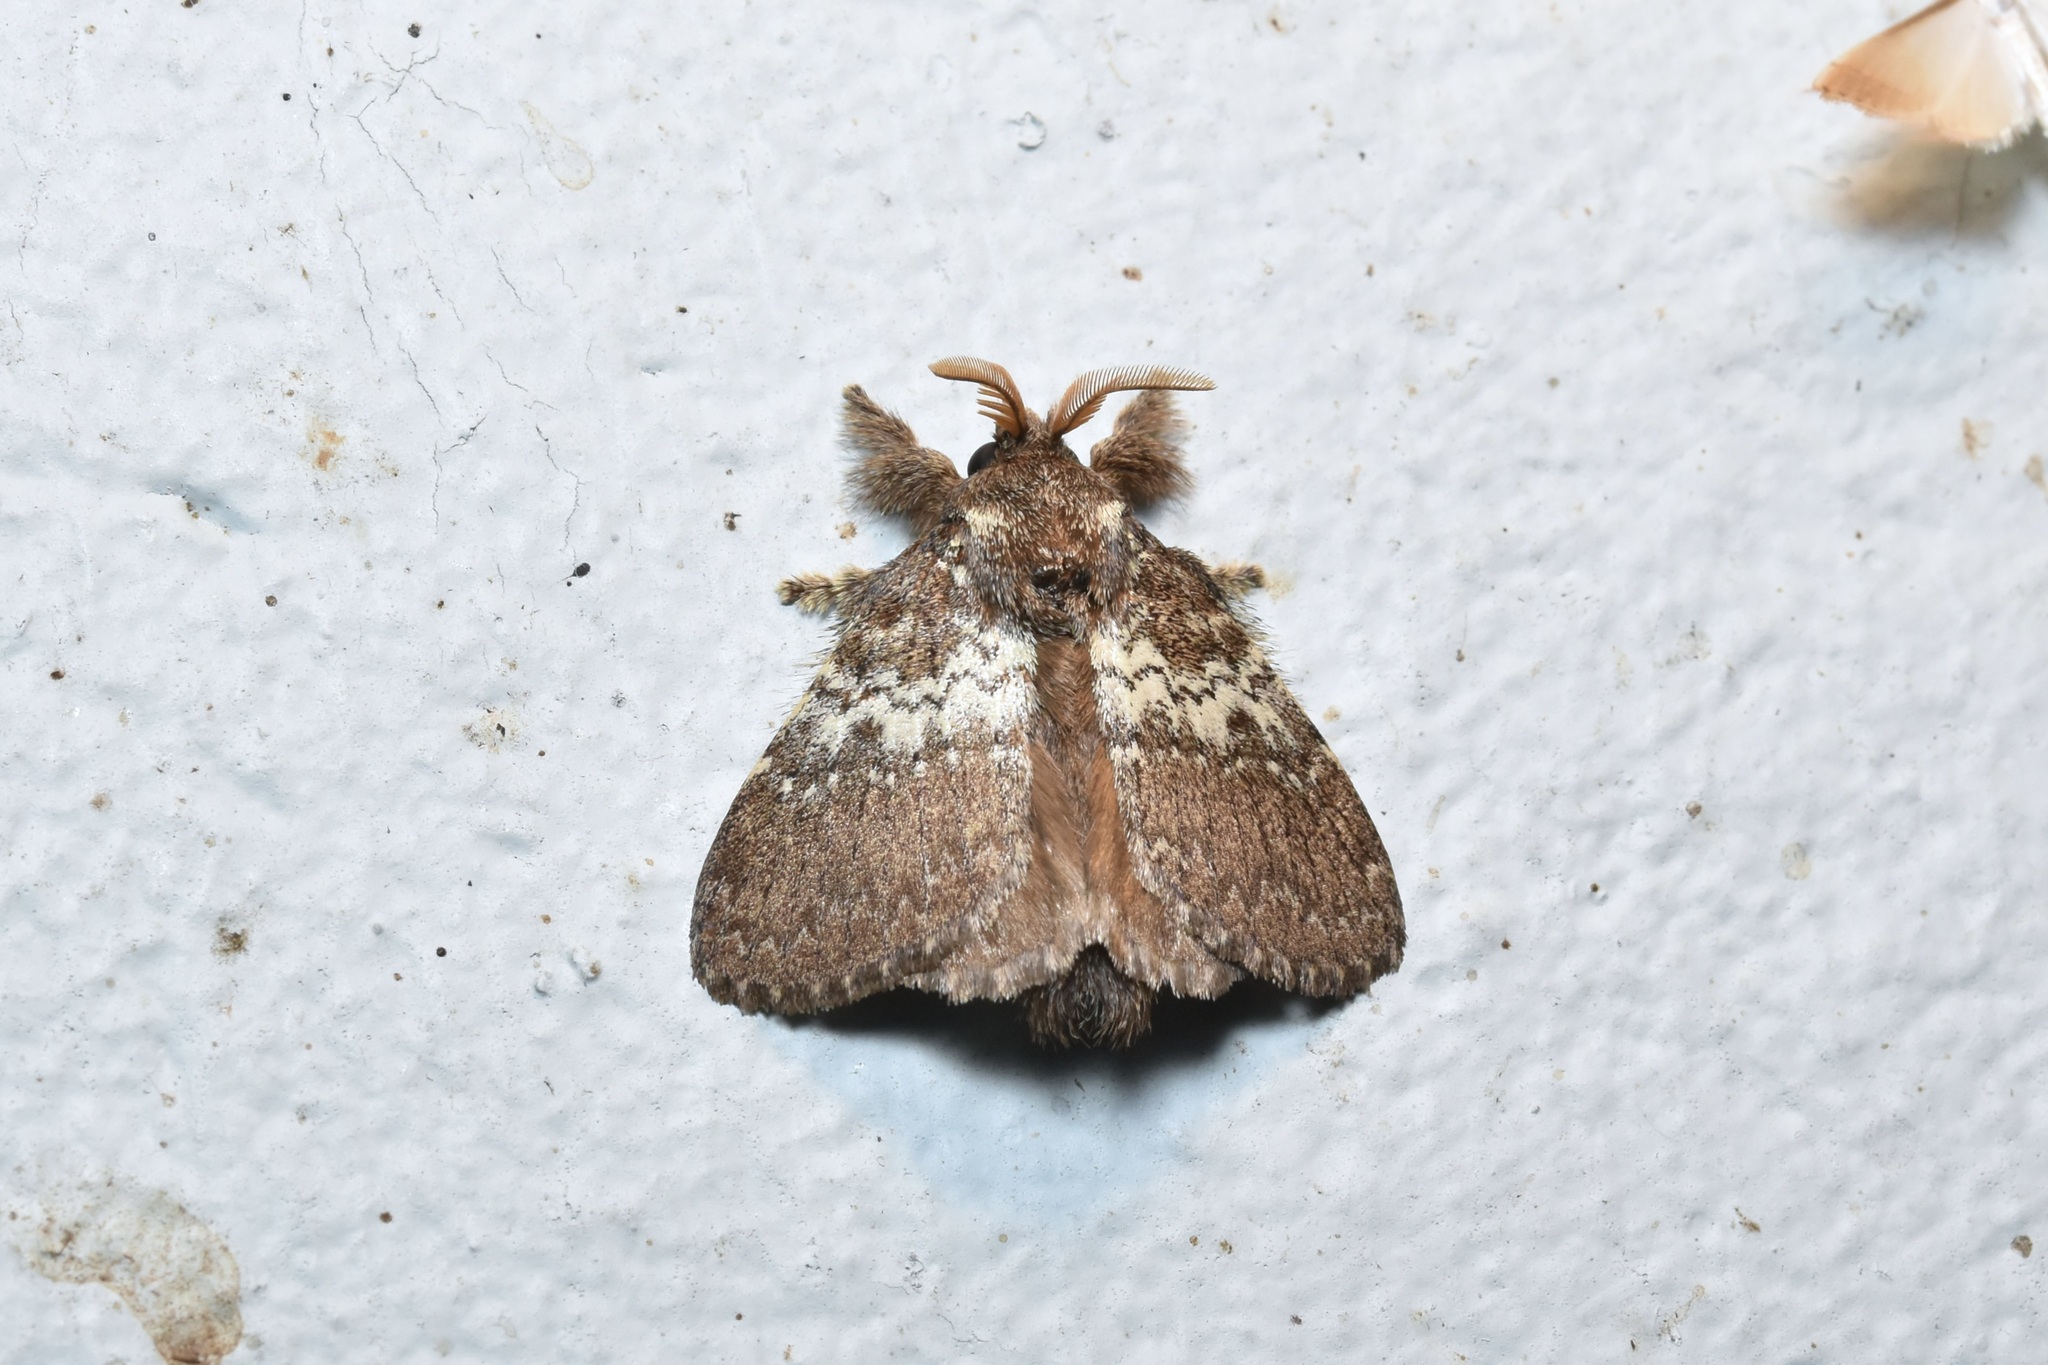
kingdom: Animalia
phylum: Arthropoda
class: Insecta
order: Lepidoptera
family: Lasiocampidae
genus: Euglyphis
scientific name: Euglyphis mediana
